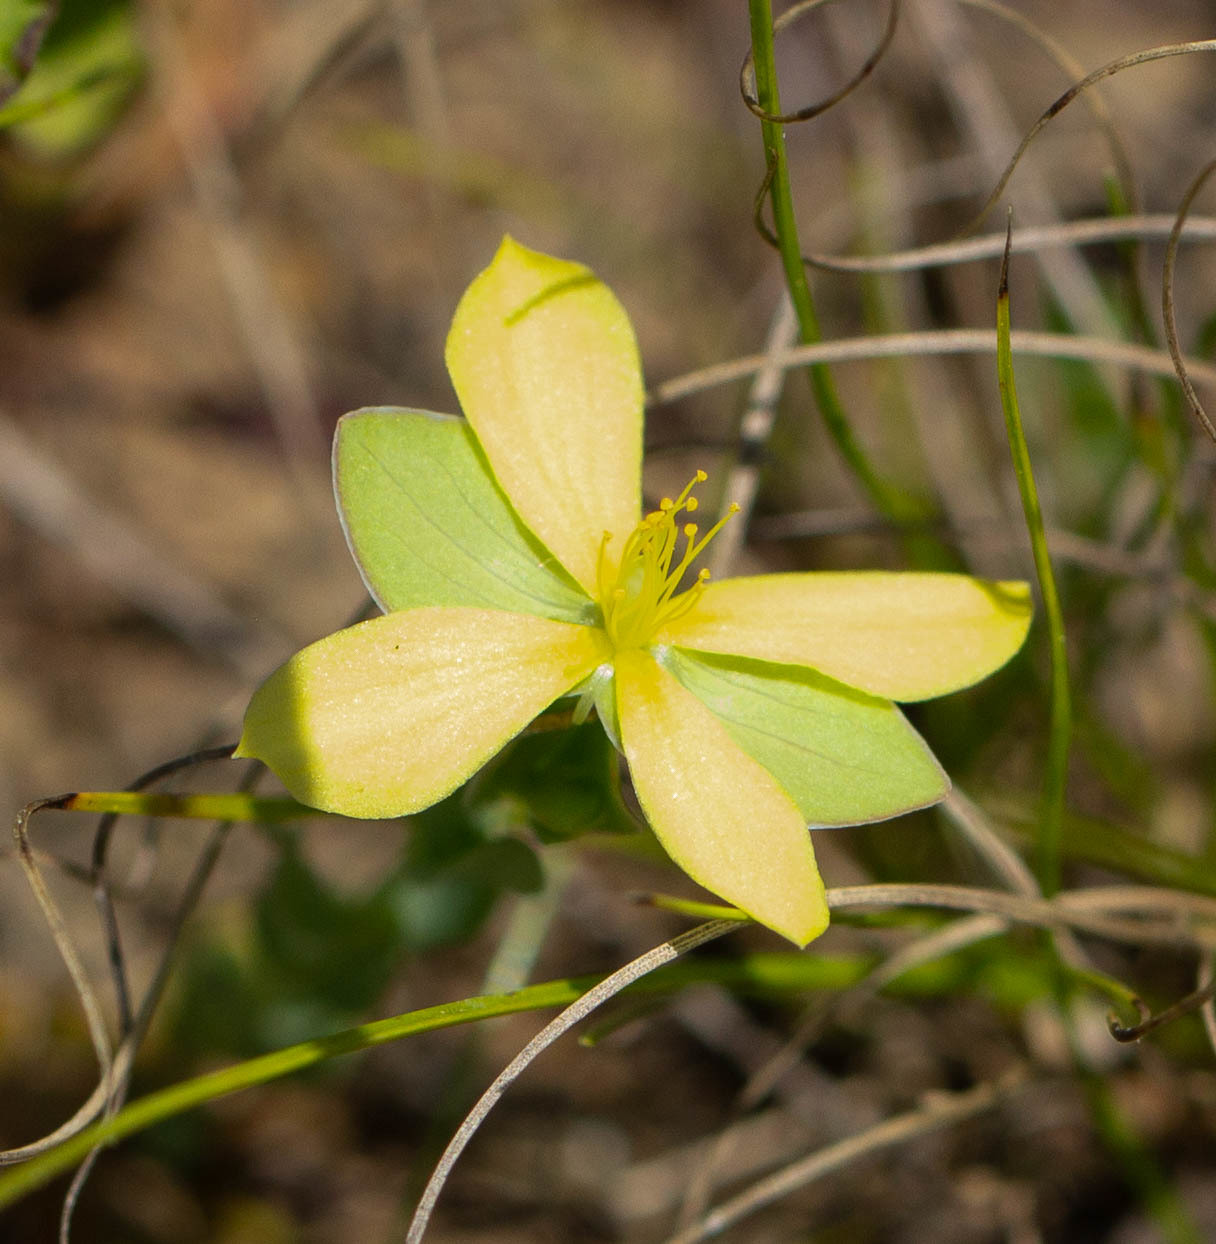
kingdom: Plantae
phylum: Tracheophyta
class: Magnoliopsida
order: Malpighiales
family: Hypericaceae
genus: Hypericum
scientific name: Hypericum hypericoides
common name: St. andrew's cross
